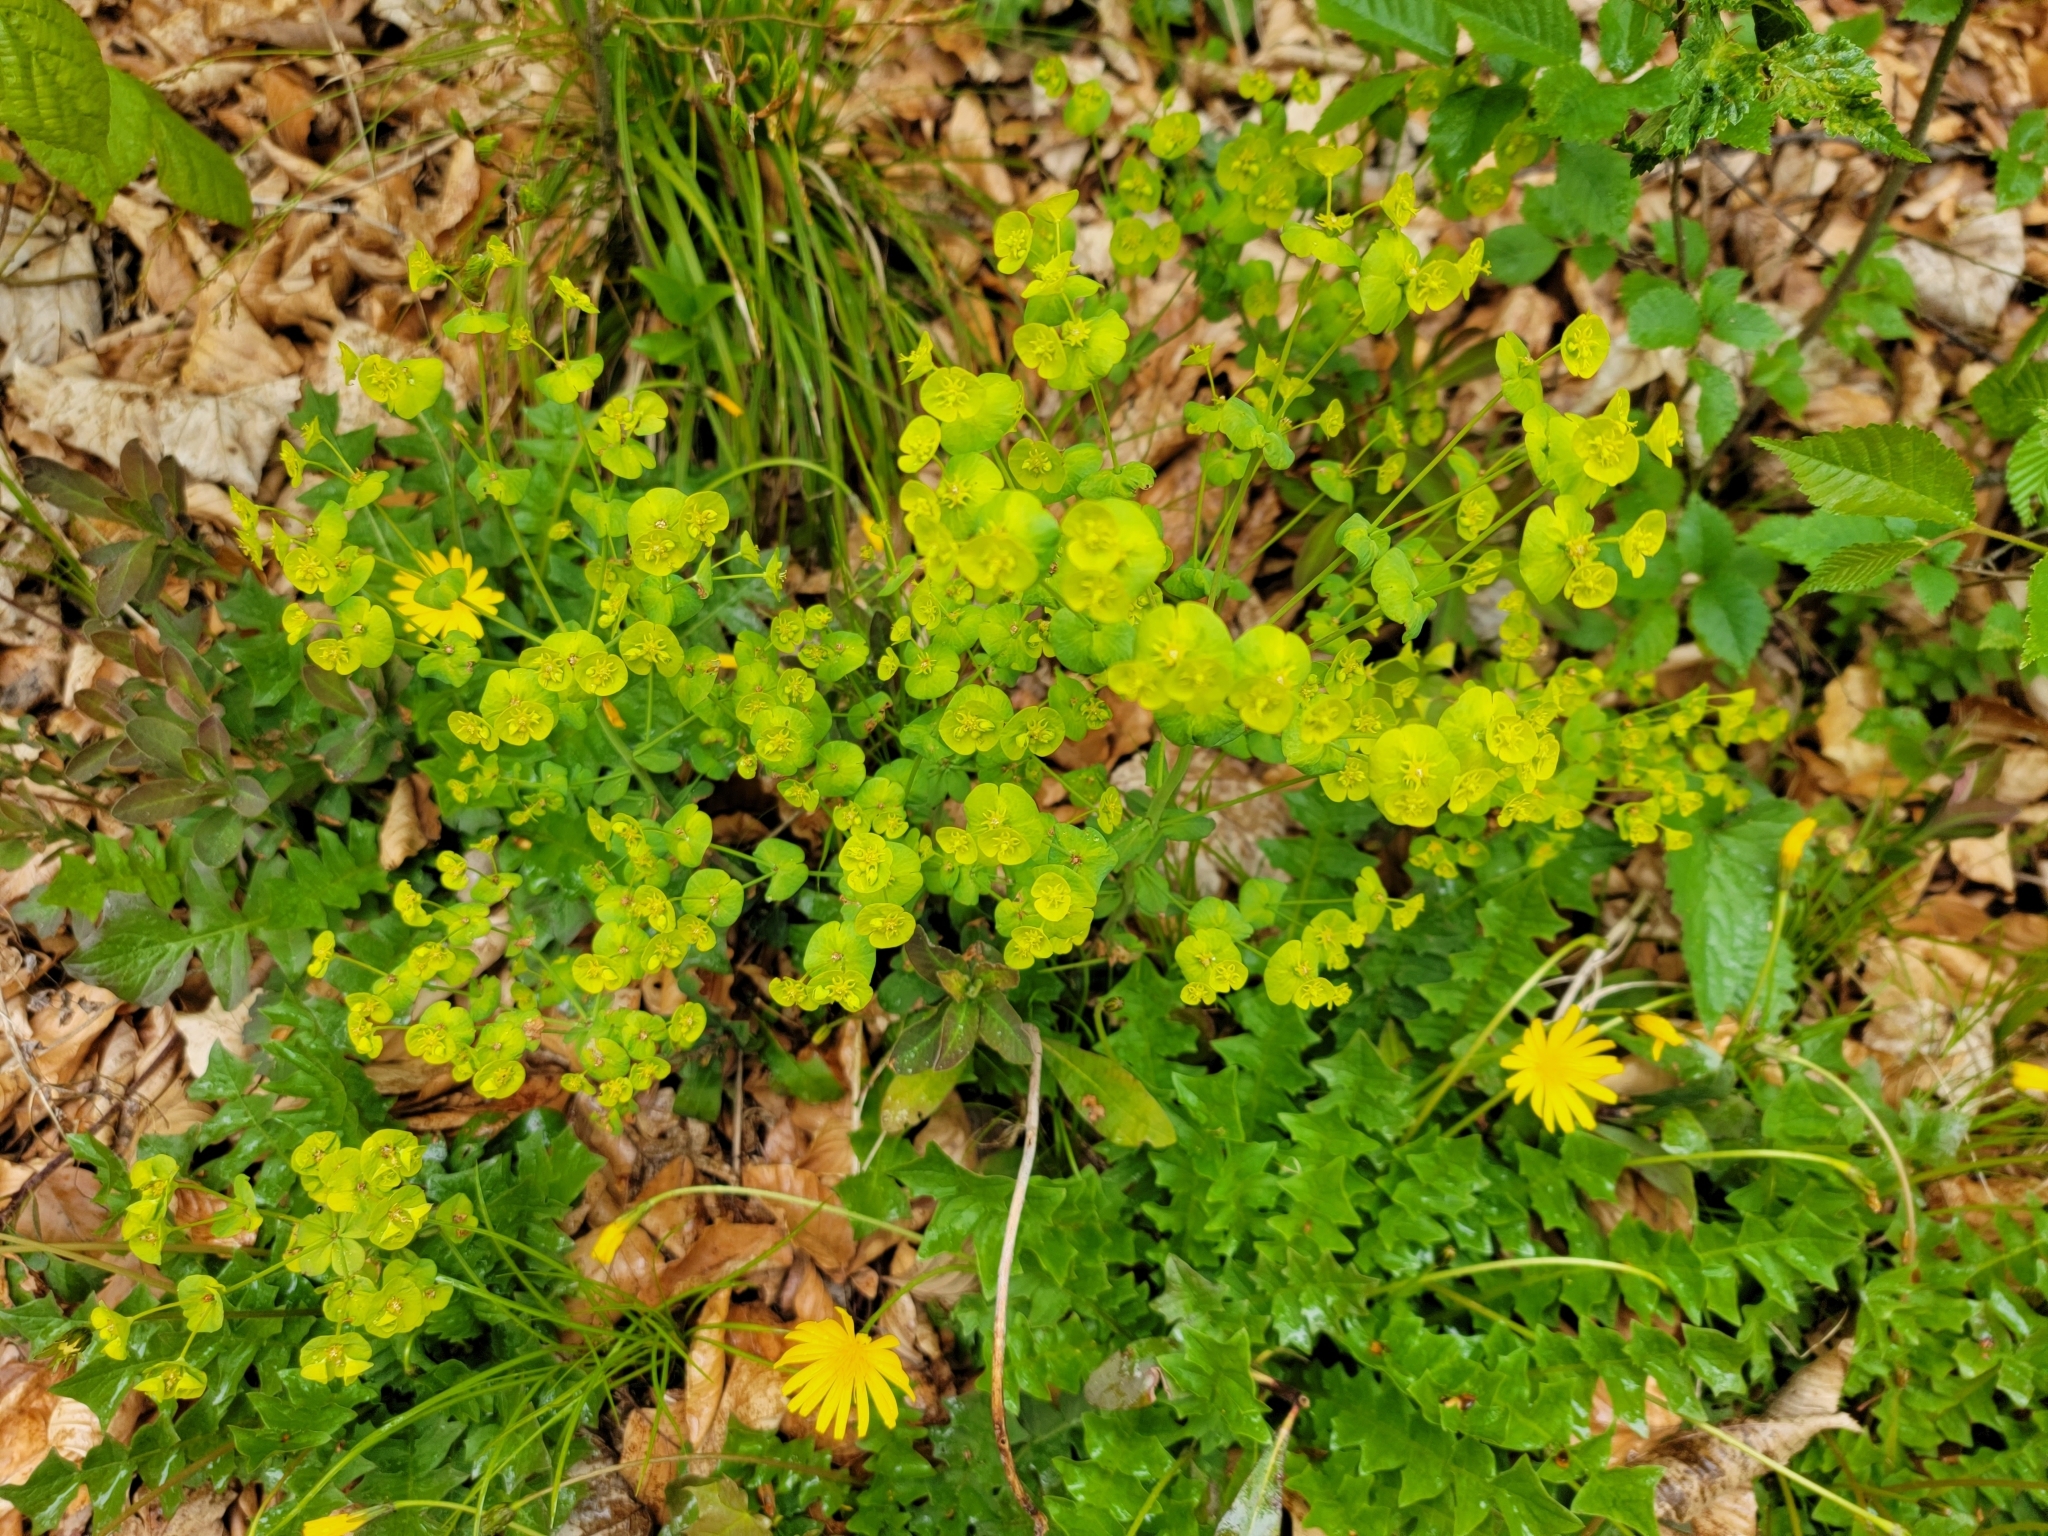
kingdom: Plantae
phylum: Tracheophyta
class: Magnoliopsida
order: Malpighiales
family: Euphorbiaceae
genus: Euphorbia
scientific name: Euphorbia amygdaloides
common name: Wood spurge
